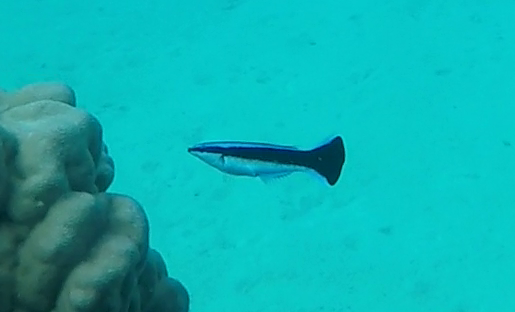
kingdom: Animalia
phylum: Chordata
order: Perciformes
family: Labridae
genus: Labroides
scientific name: Labroides dimidiatus
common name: Blue diesel wrasse
